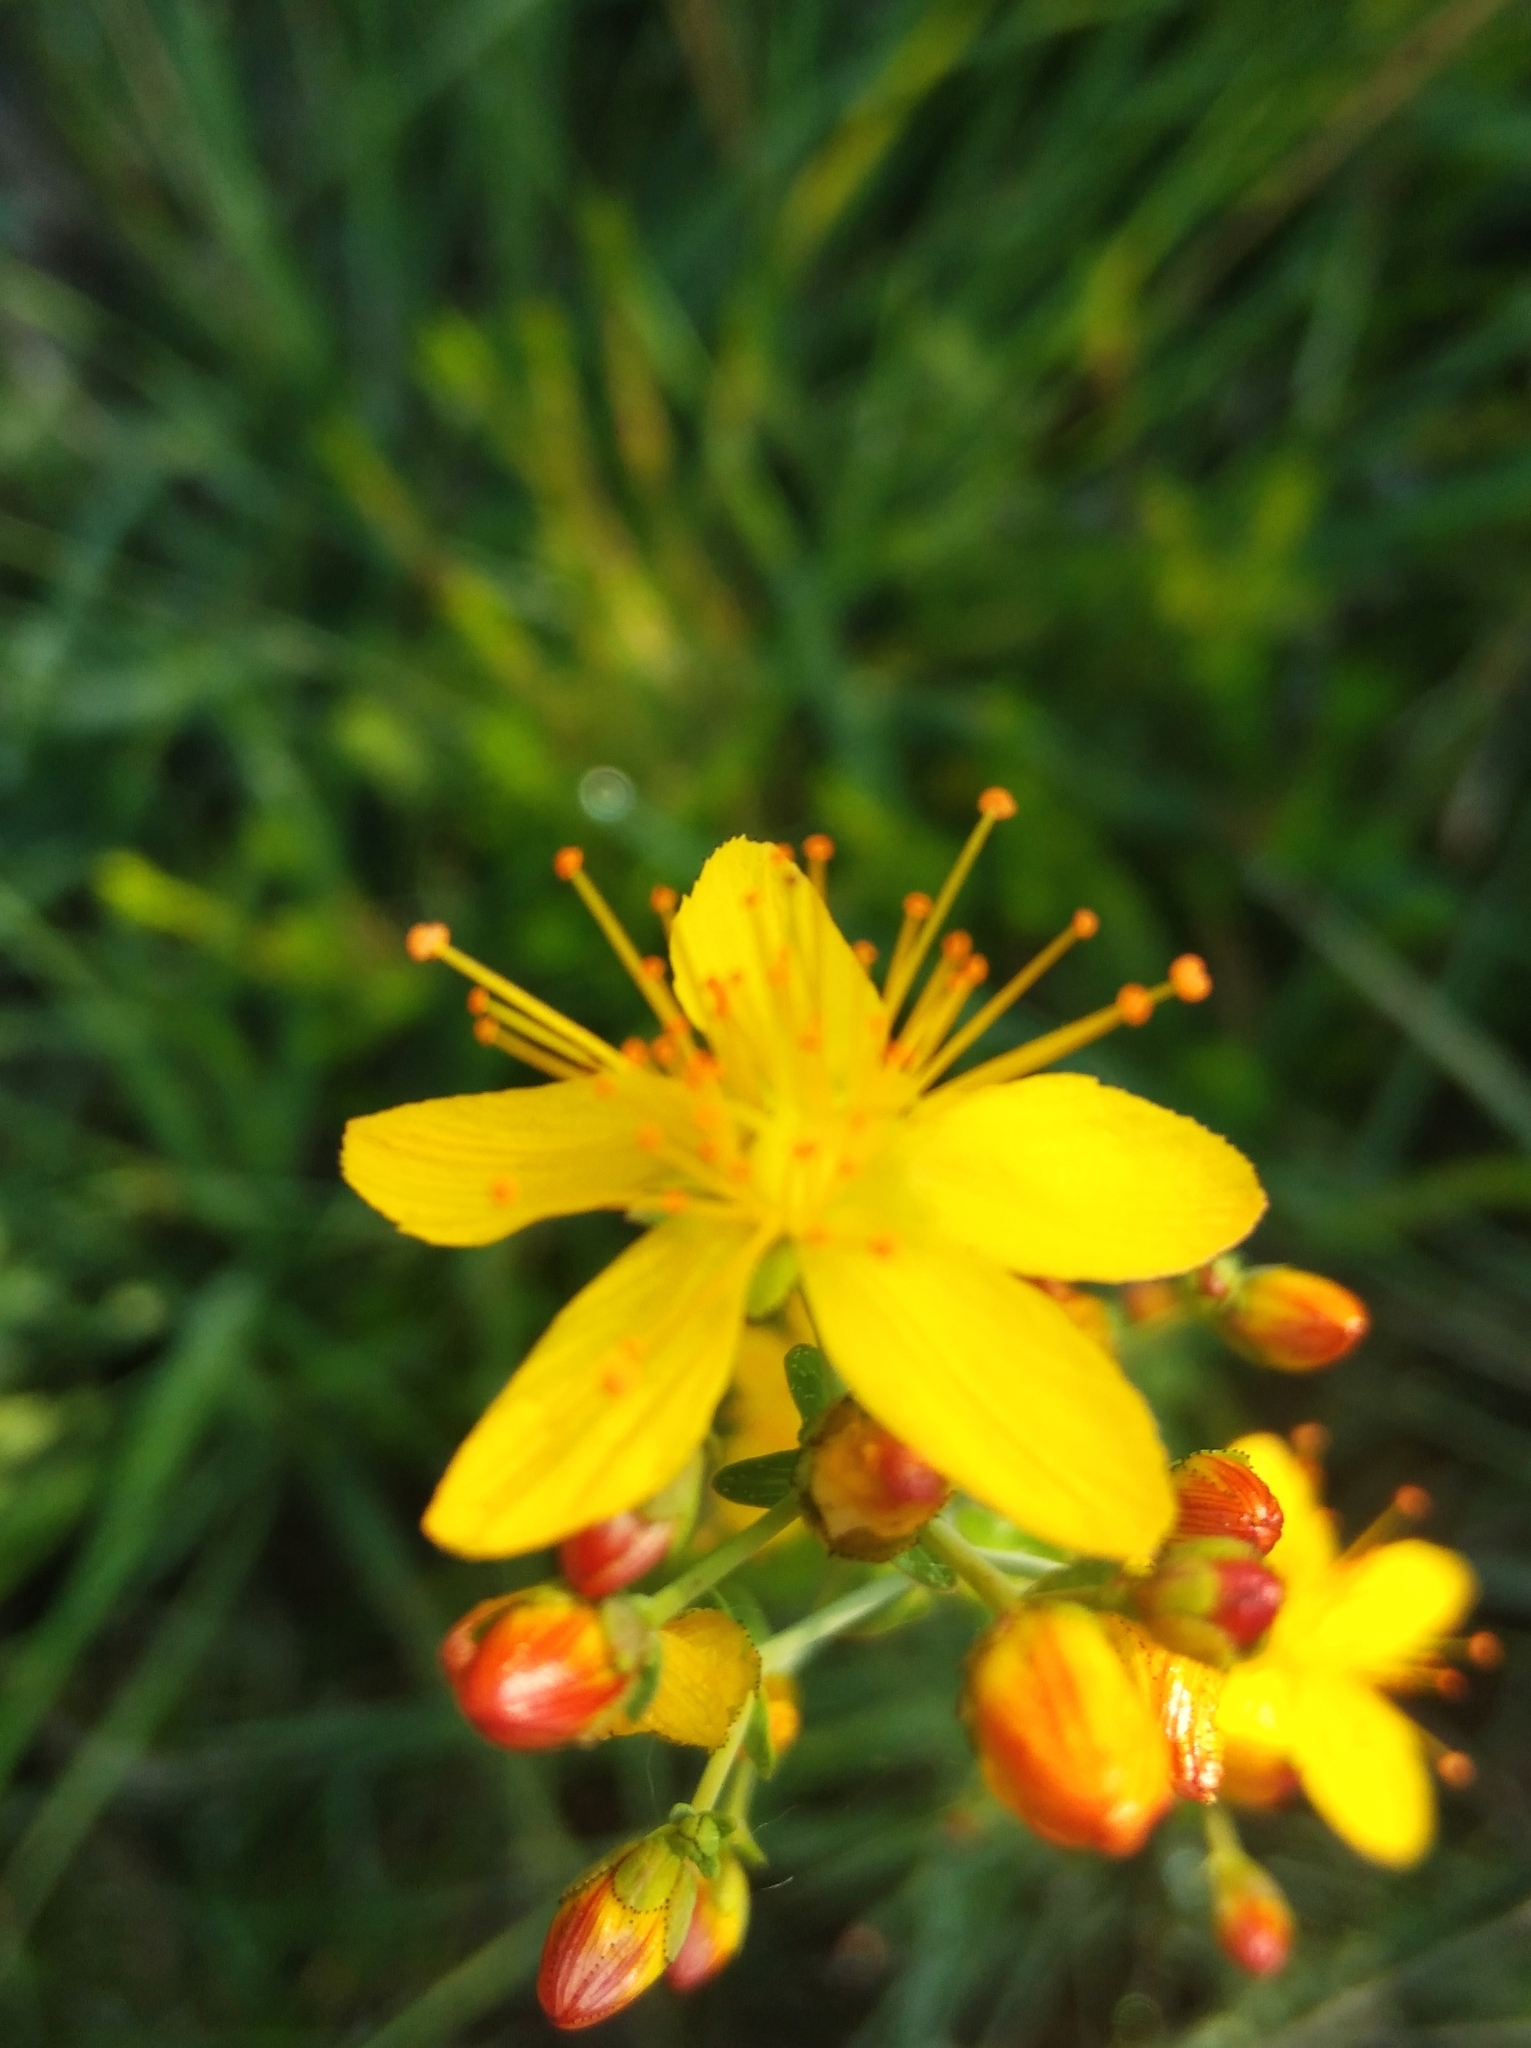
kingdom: Plantae
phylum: Tracheophyta
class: Magnoliopsida
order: Malpighiales
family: Hypericaceae
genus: Hypericum
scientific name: Hypericum pulchrum
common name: Slender st. john's-wort
